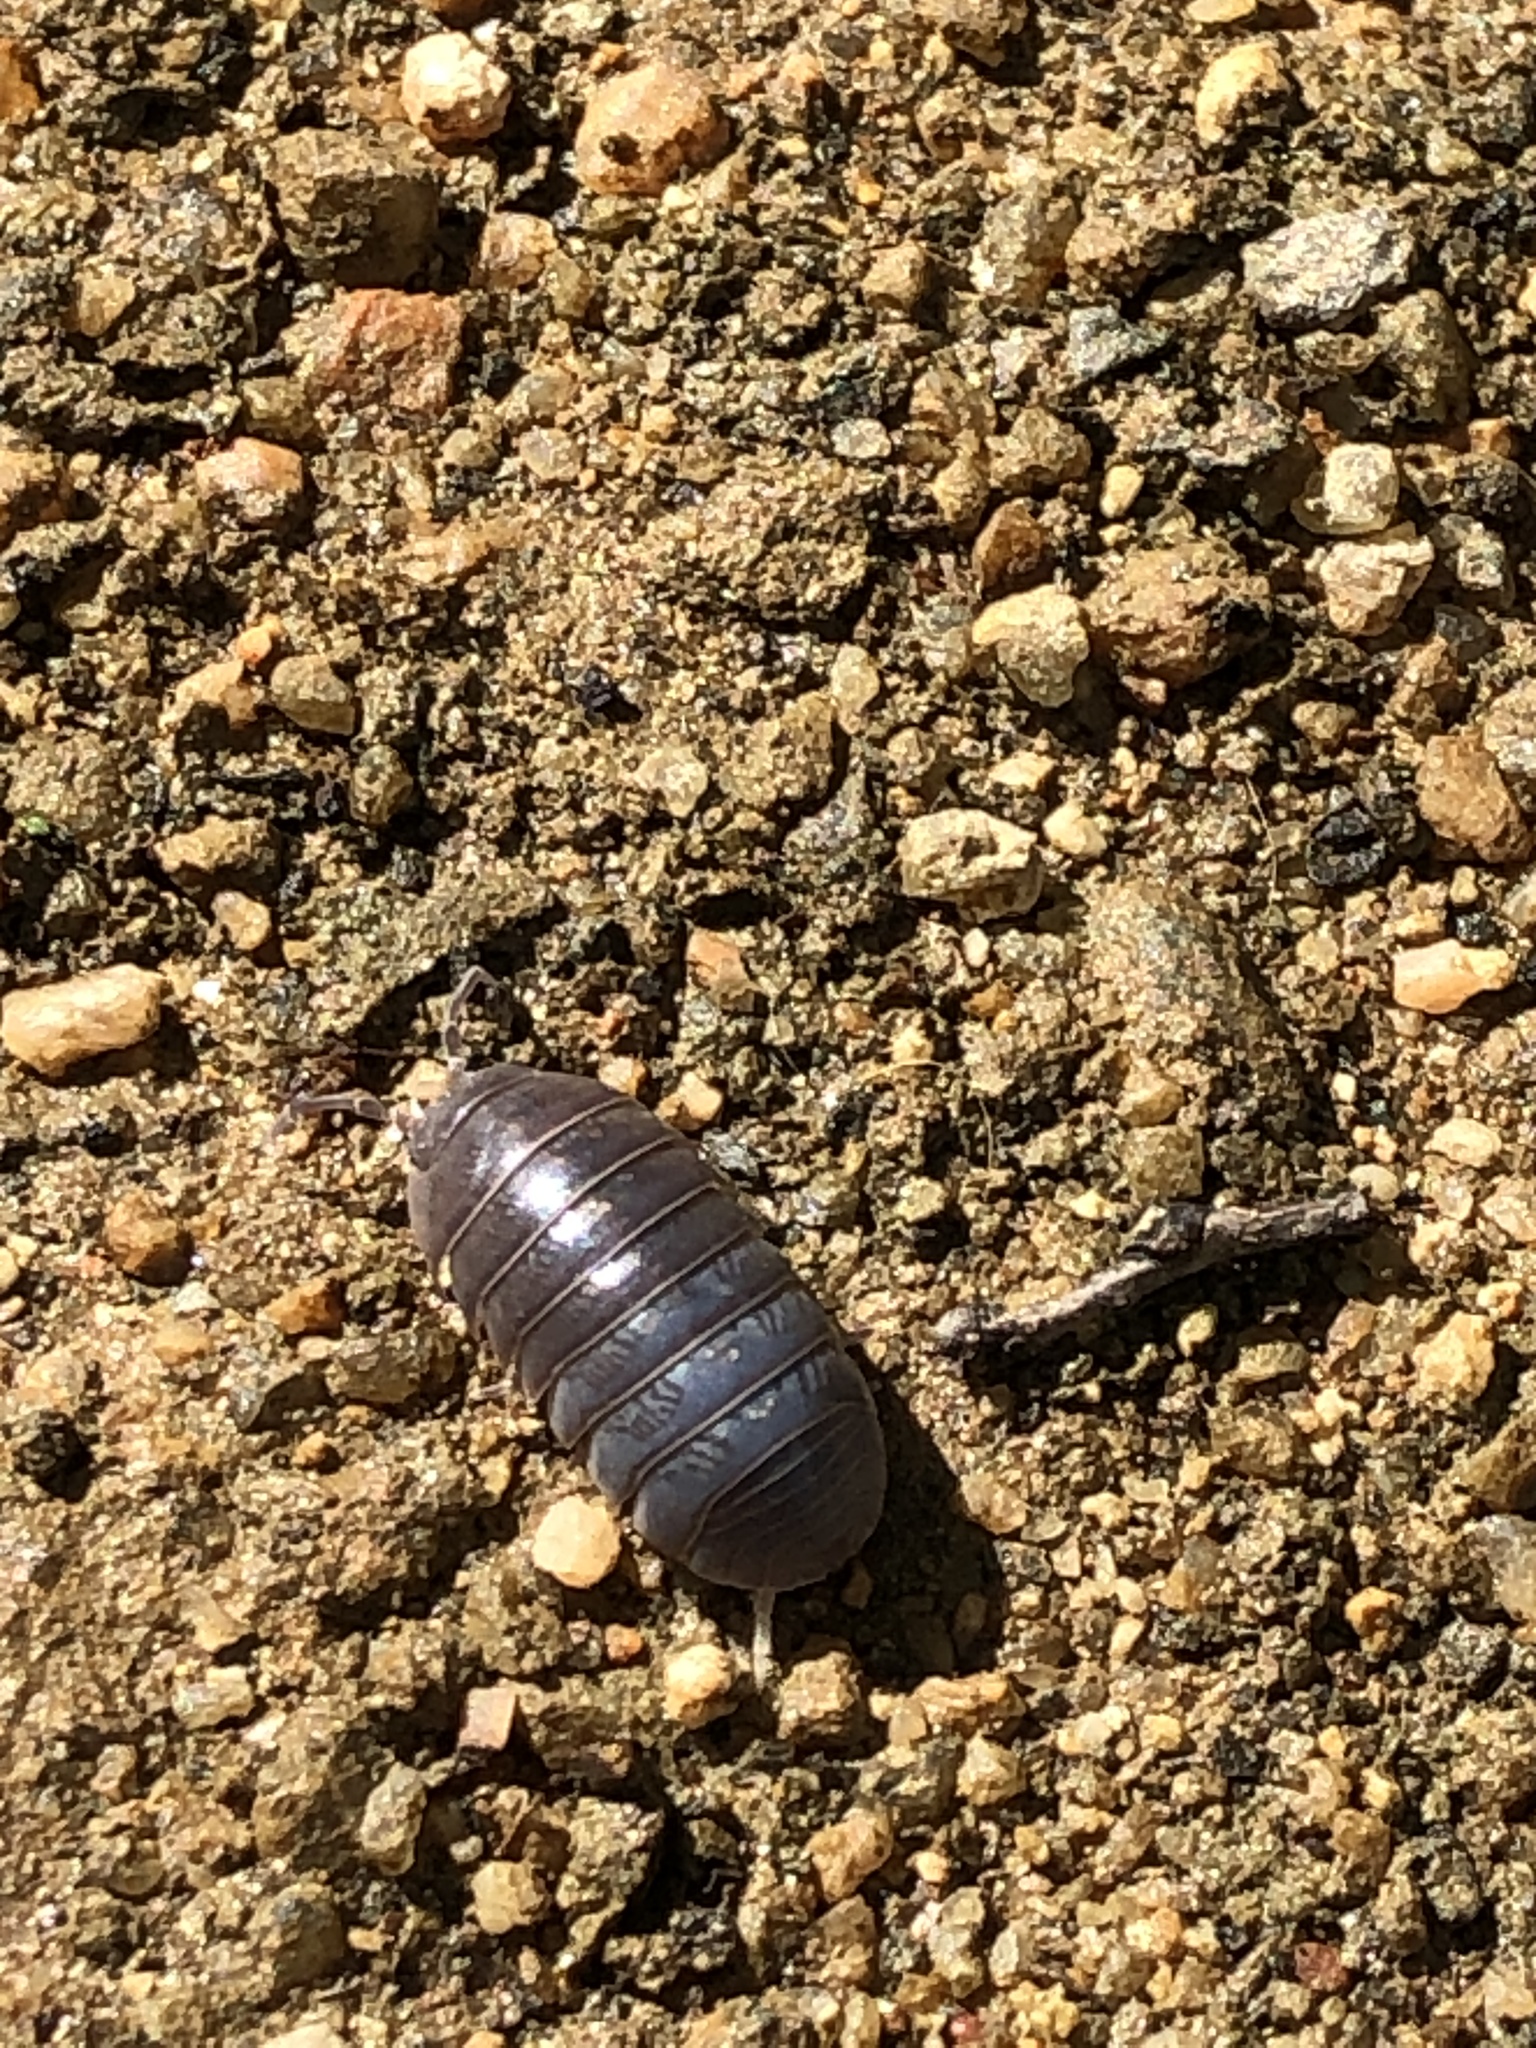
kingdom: Animalia
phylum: Arthropoda
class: Malacostraca
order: Isopoda
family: Armadillidiidae
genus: Armadillidium
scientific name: Armadillidium vulgare
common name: Common pill woodlouse
